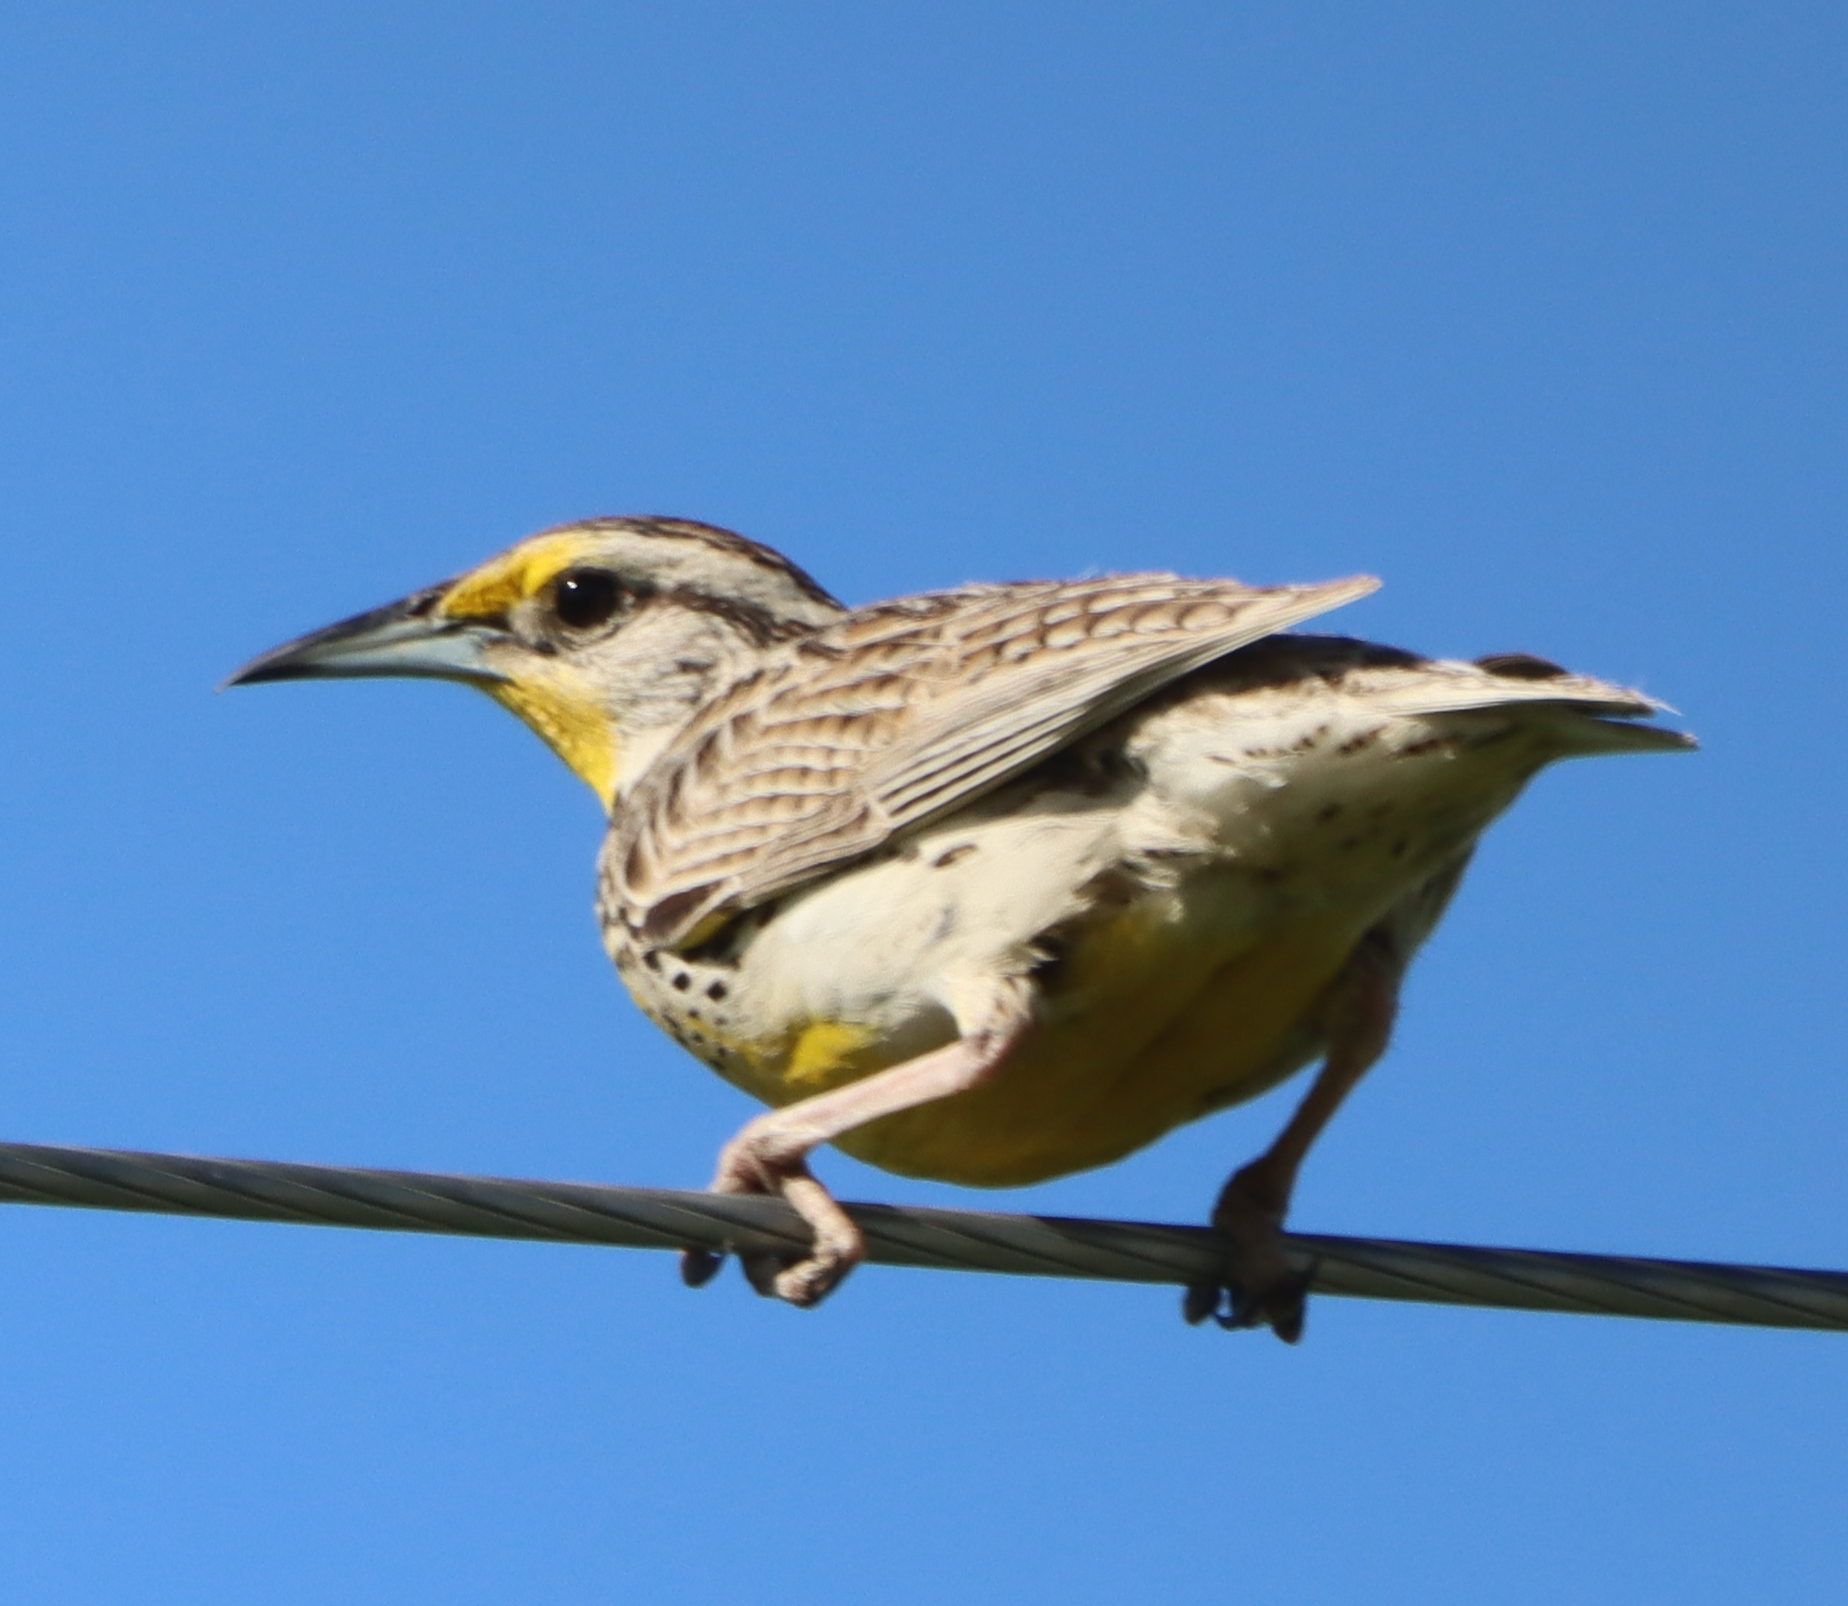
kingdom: Animalia
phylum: Chordata
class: Aves
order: Passeriformes
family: Icteridae
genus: Sturnella
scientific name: Sturnella neglecta
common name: Western meadowlark
